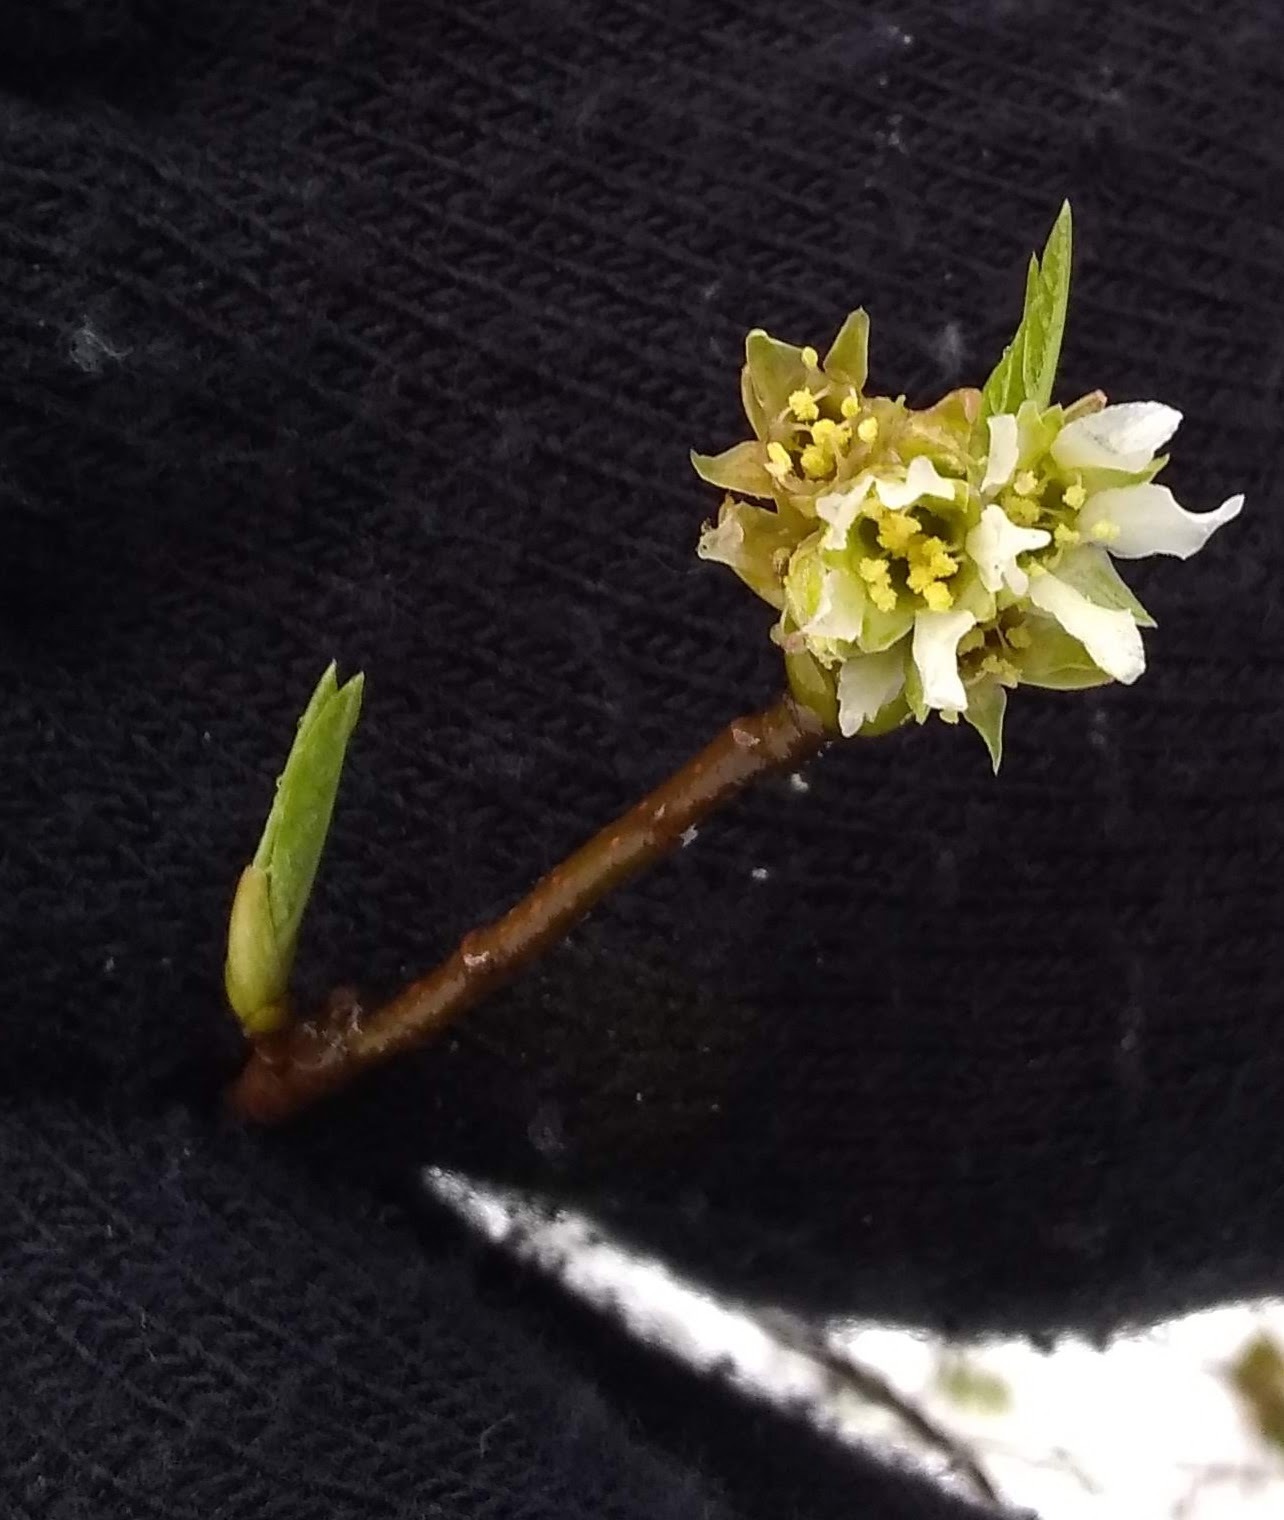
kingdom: Plantae
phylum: Tracheophyta
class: Magnoliopsida
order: Rosales
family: Rosaceae
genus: Oemleria
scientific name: Oemleria cerasiformis
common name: Osoberry
